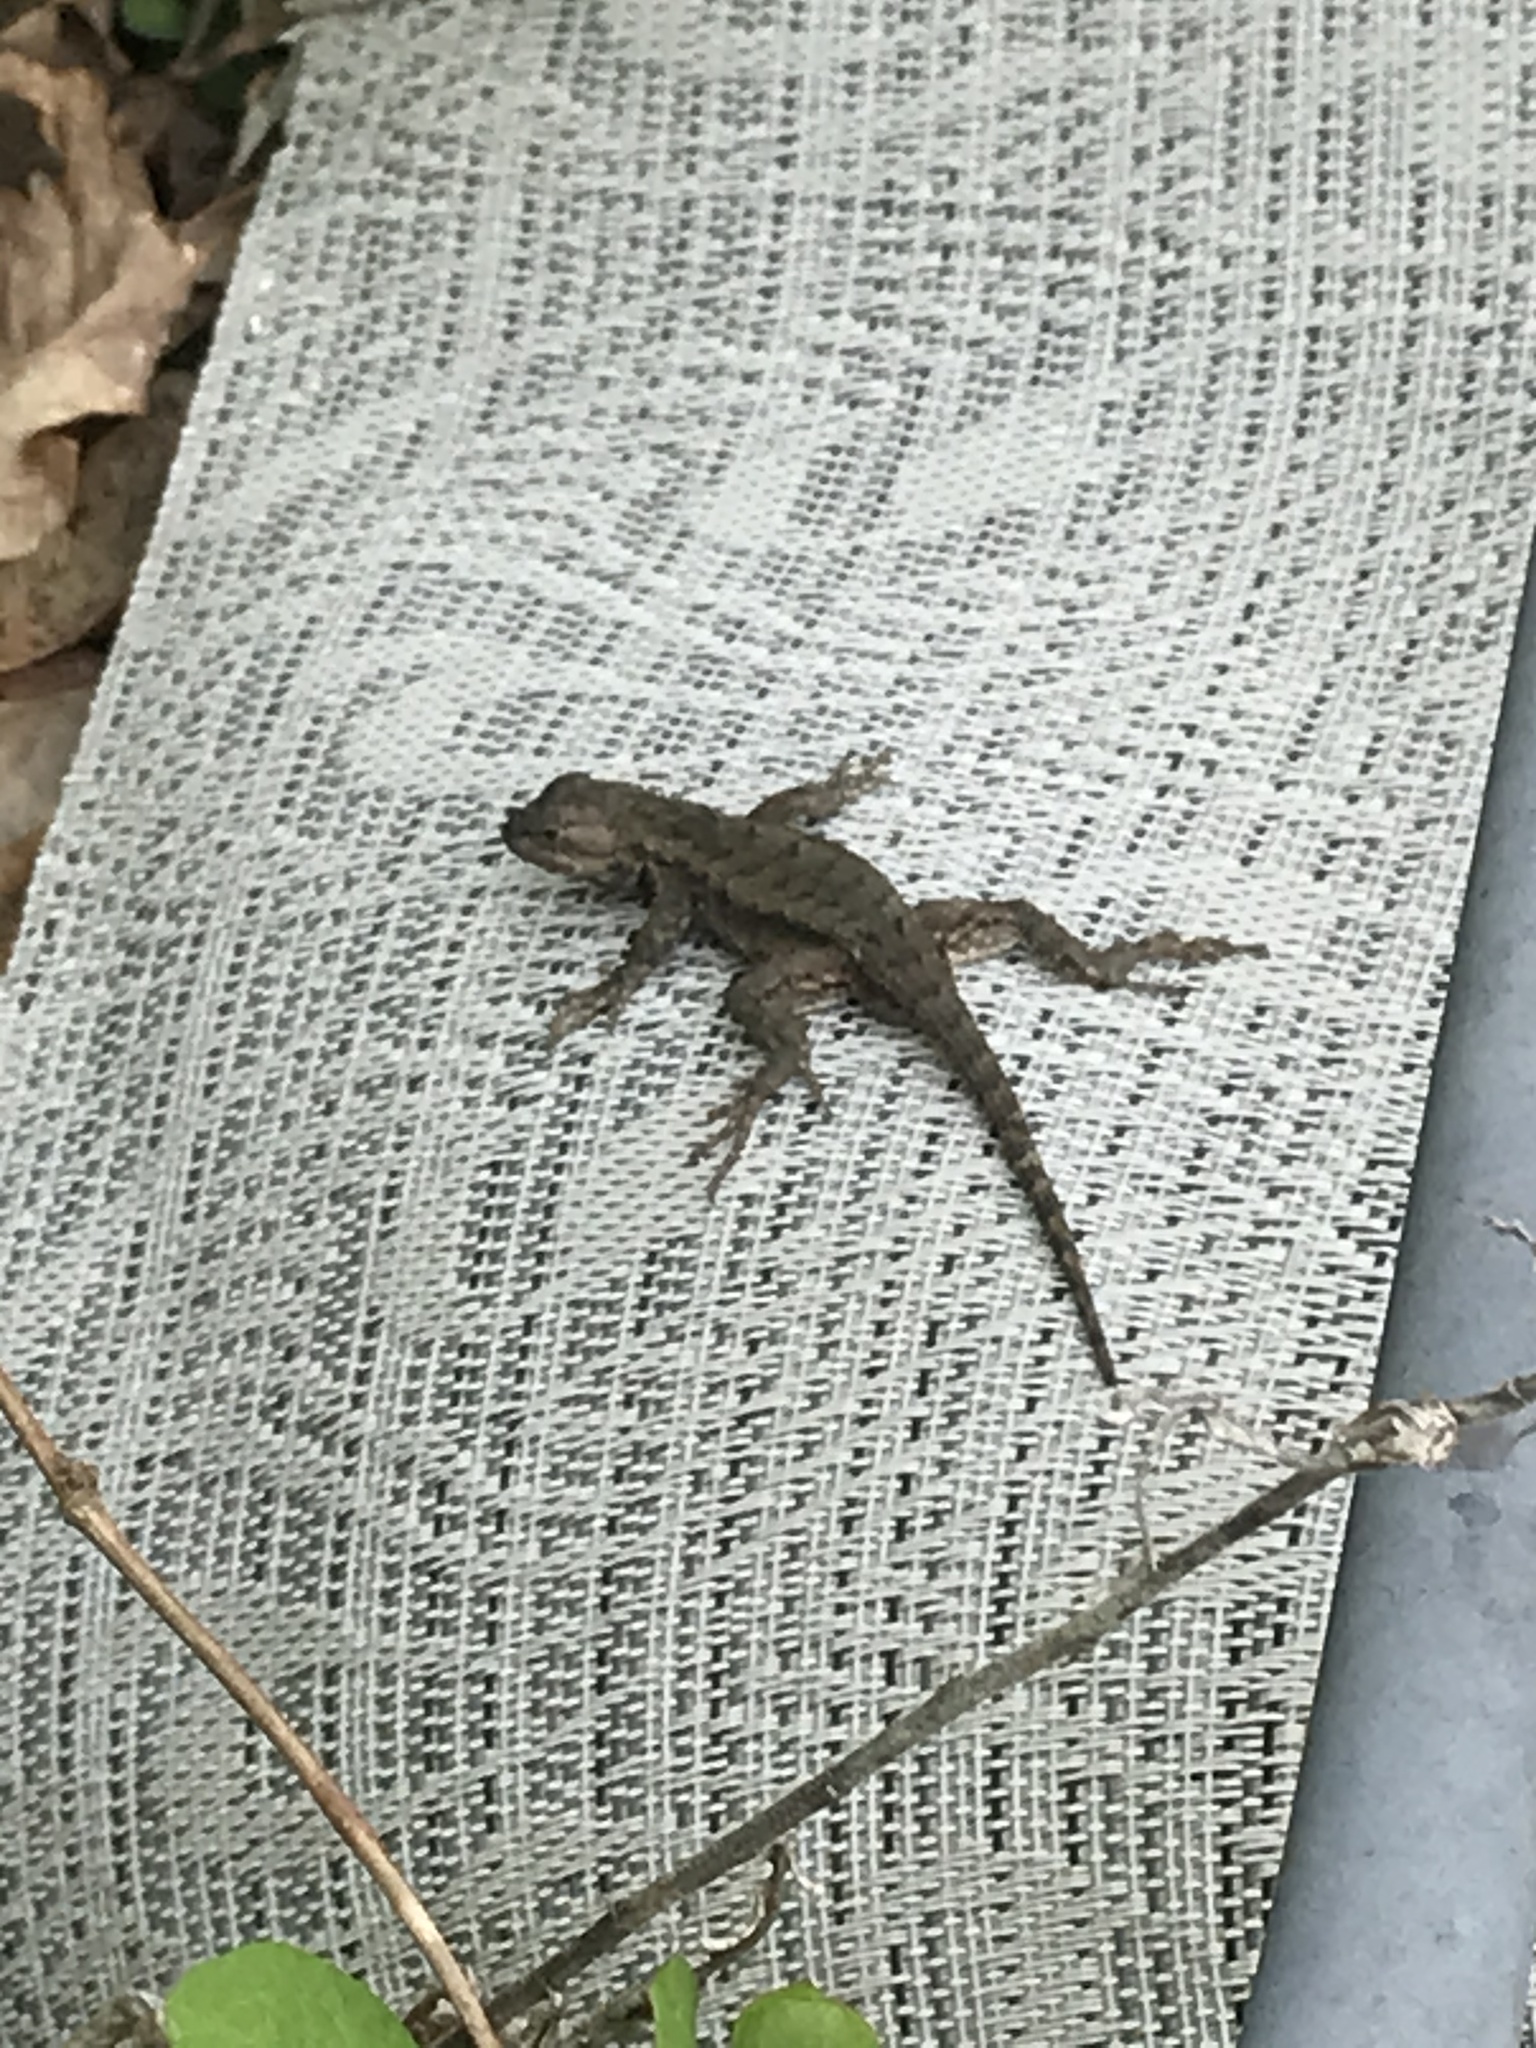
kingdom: Animalia
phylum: Chordata
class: Squamata
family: Phrynosomatidae
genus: Sceloporus
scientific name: Sceloporus consobrinus
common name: Southern prairie lizard
